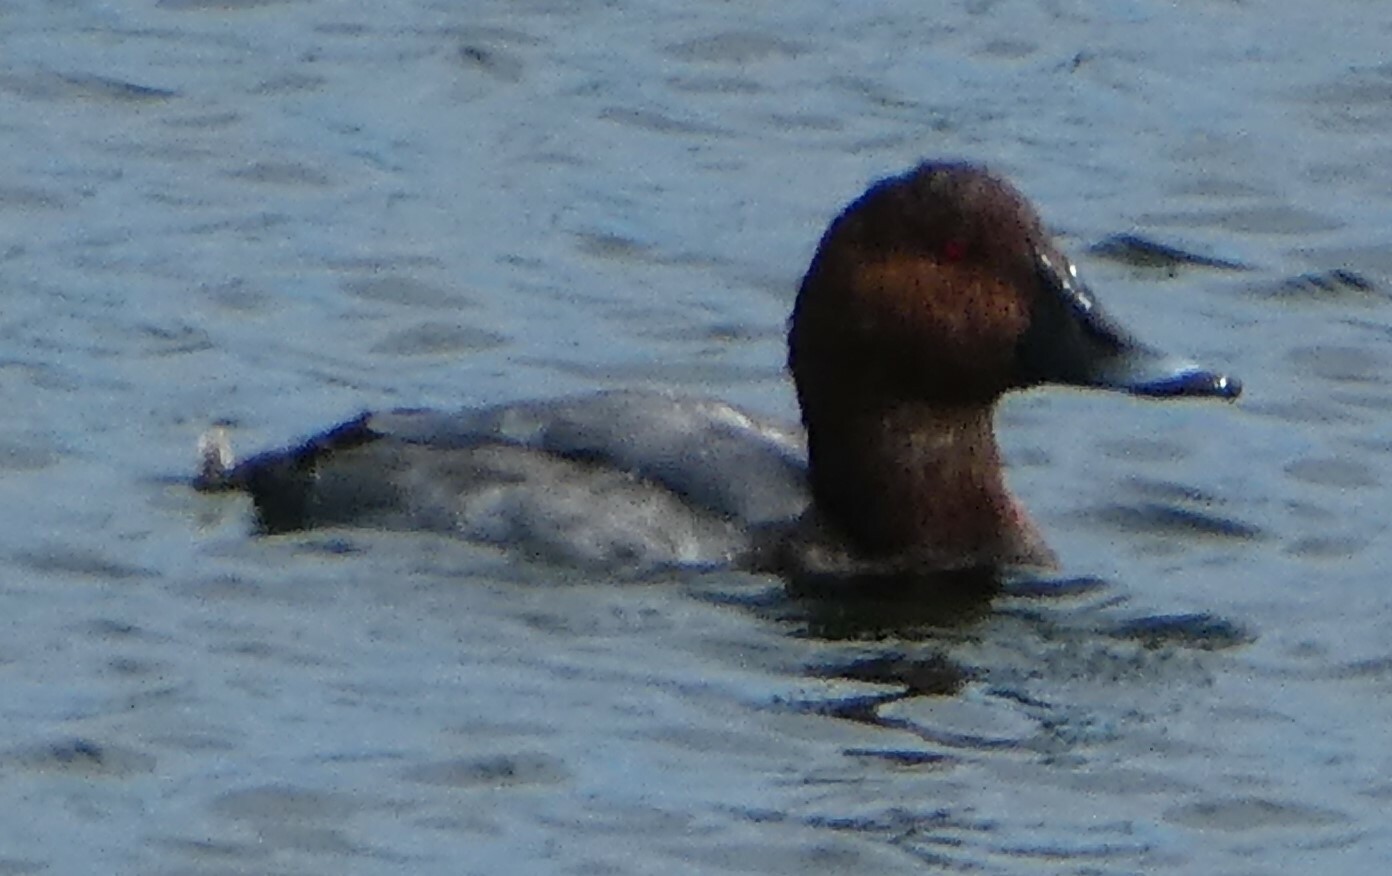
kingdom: Animalia
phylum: Chordata
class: Aves
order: Anseriformes
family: Anatidae
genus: Aythya
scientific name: Aythya ferina
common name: Common pochard
